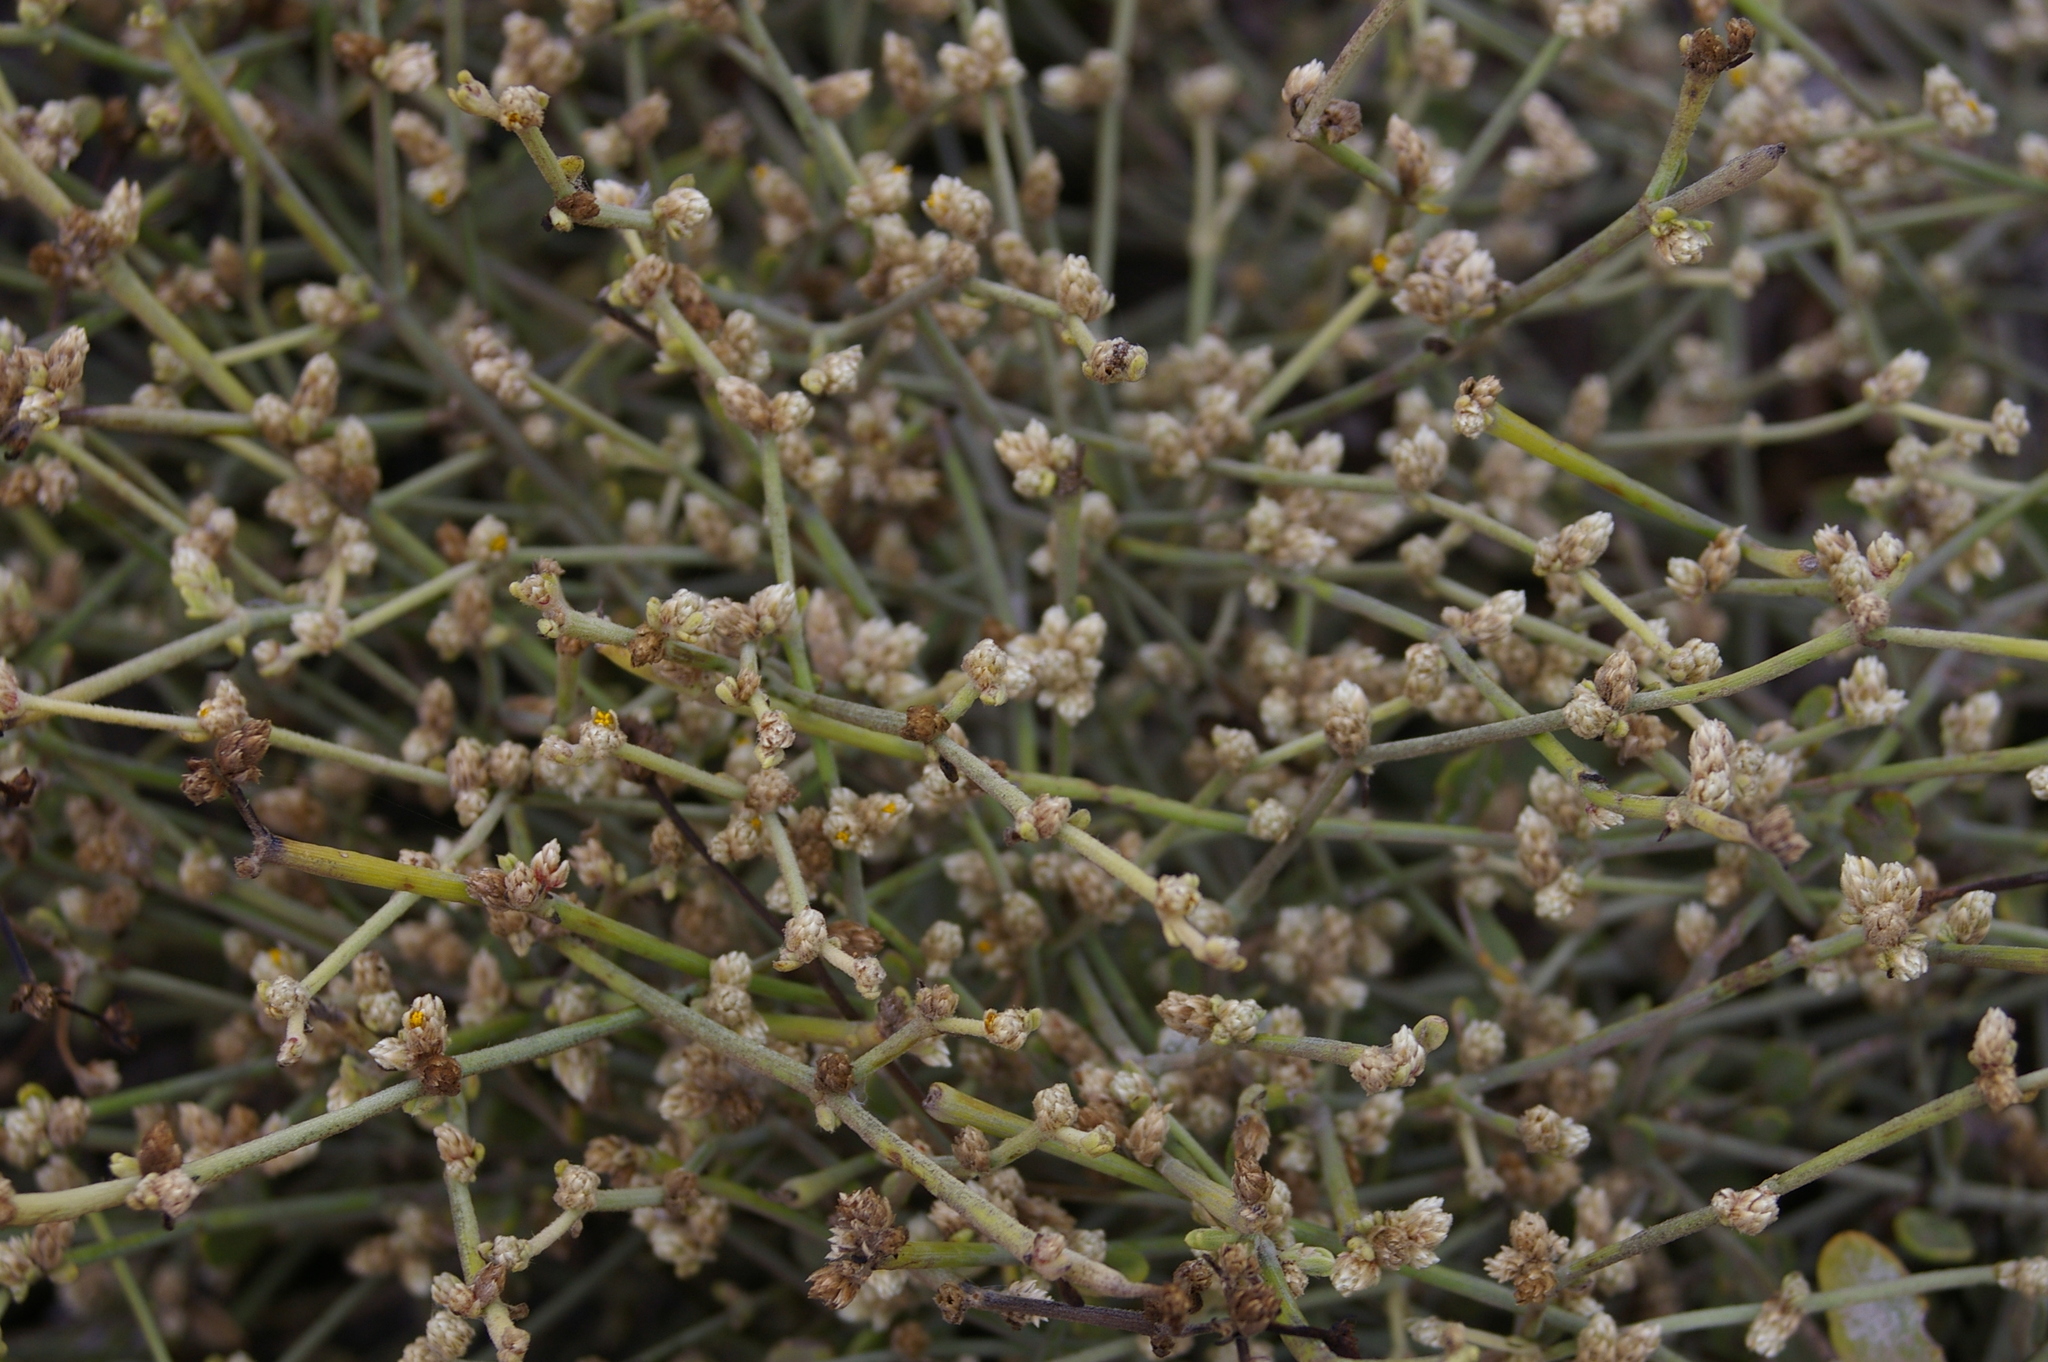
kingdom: Plantae
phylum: Tracheophyta
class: Magnoliopsida
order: Caryophyllales
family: Amaranthaceae
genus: Alternanthera
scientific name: Alternanthera filifolia
